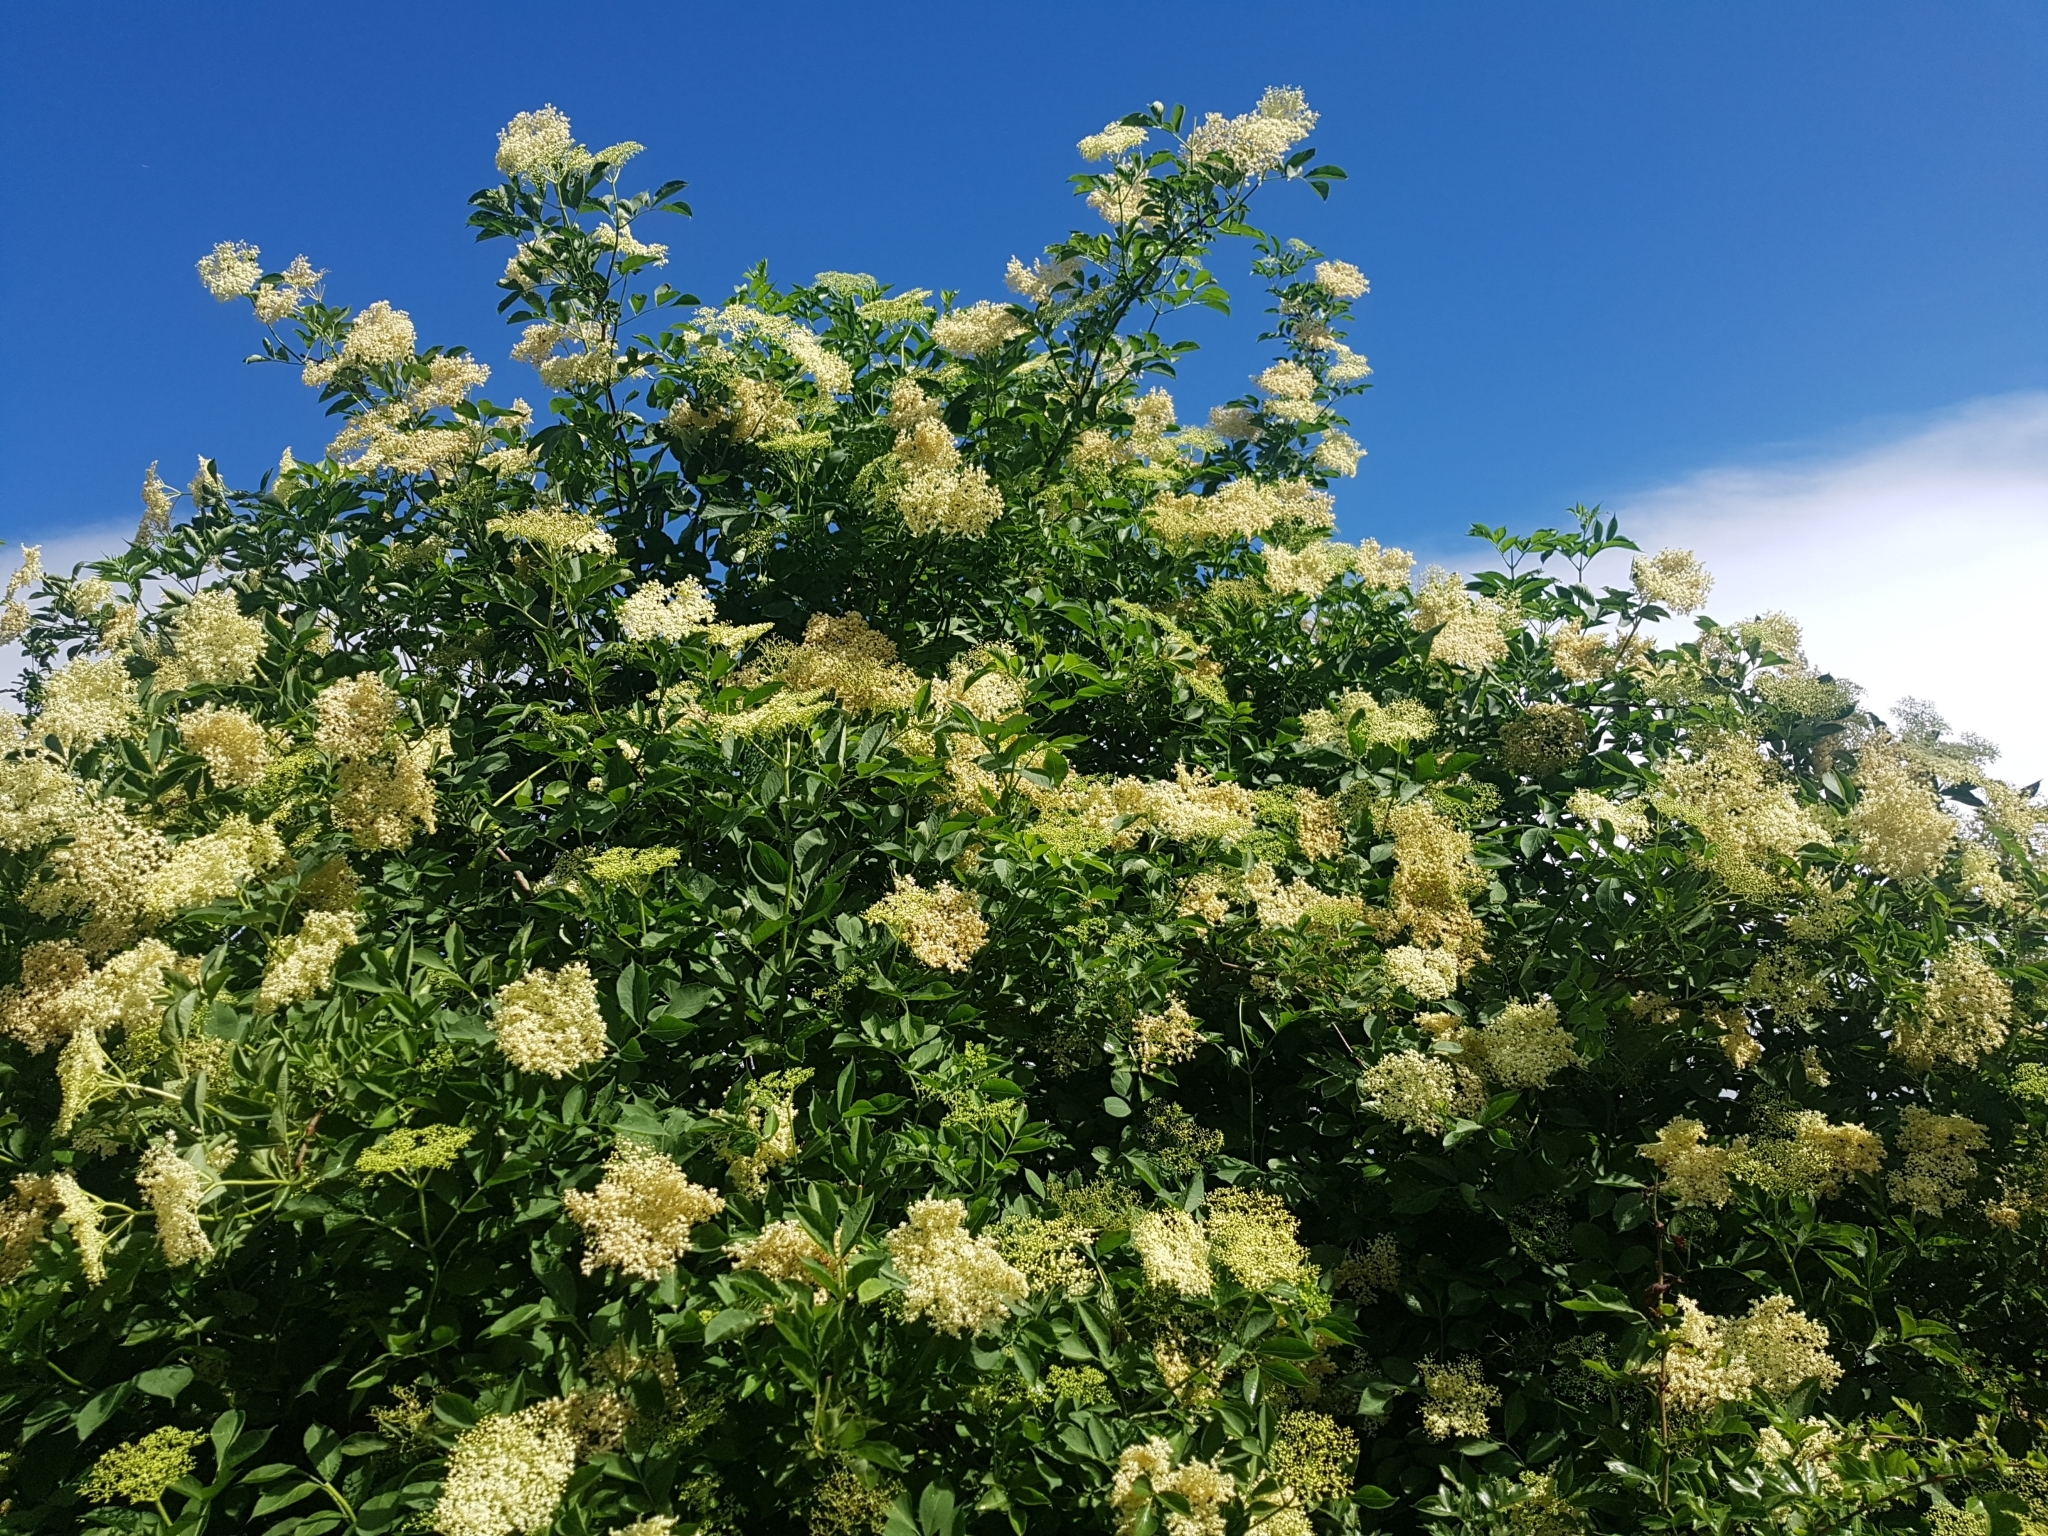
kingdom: Plantae
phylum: Tracheophyta
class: Magnoliopsida
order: Dipsacales
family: Viburnaceae
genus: Sambucus
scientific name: Sambucus nigra
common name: Elder
